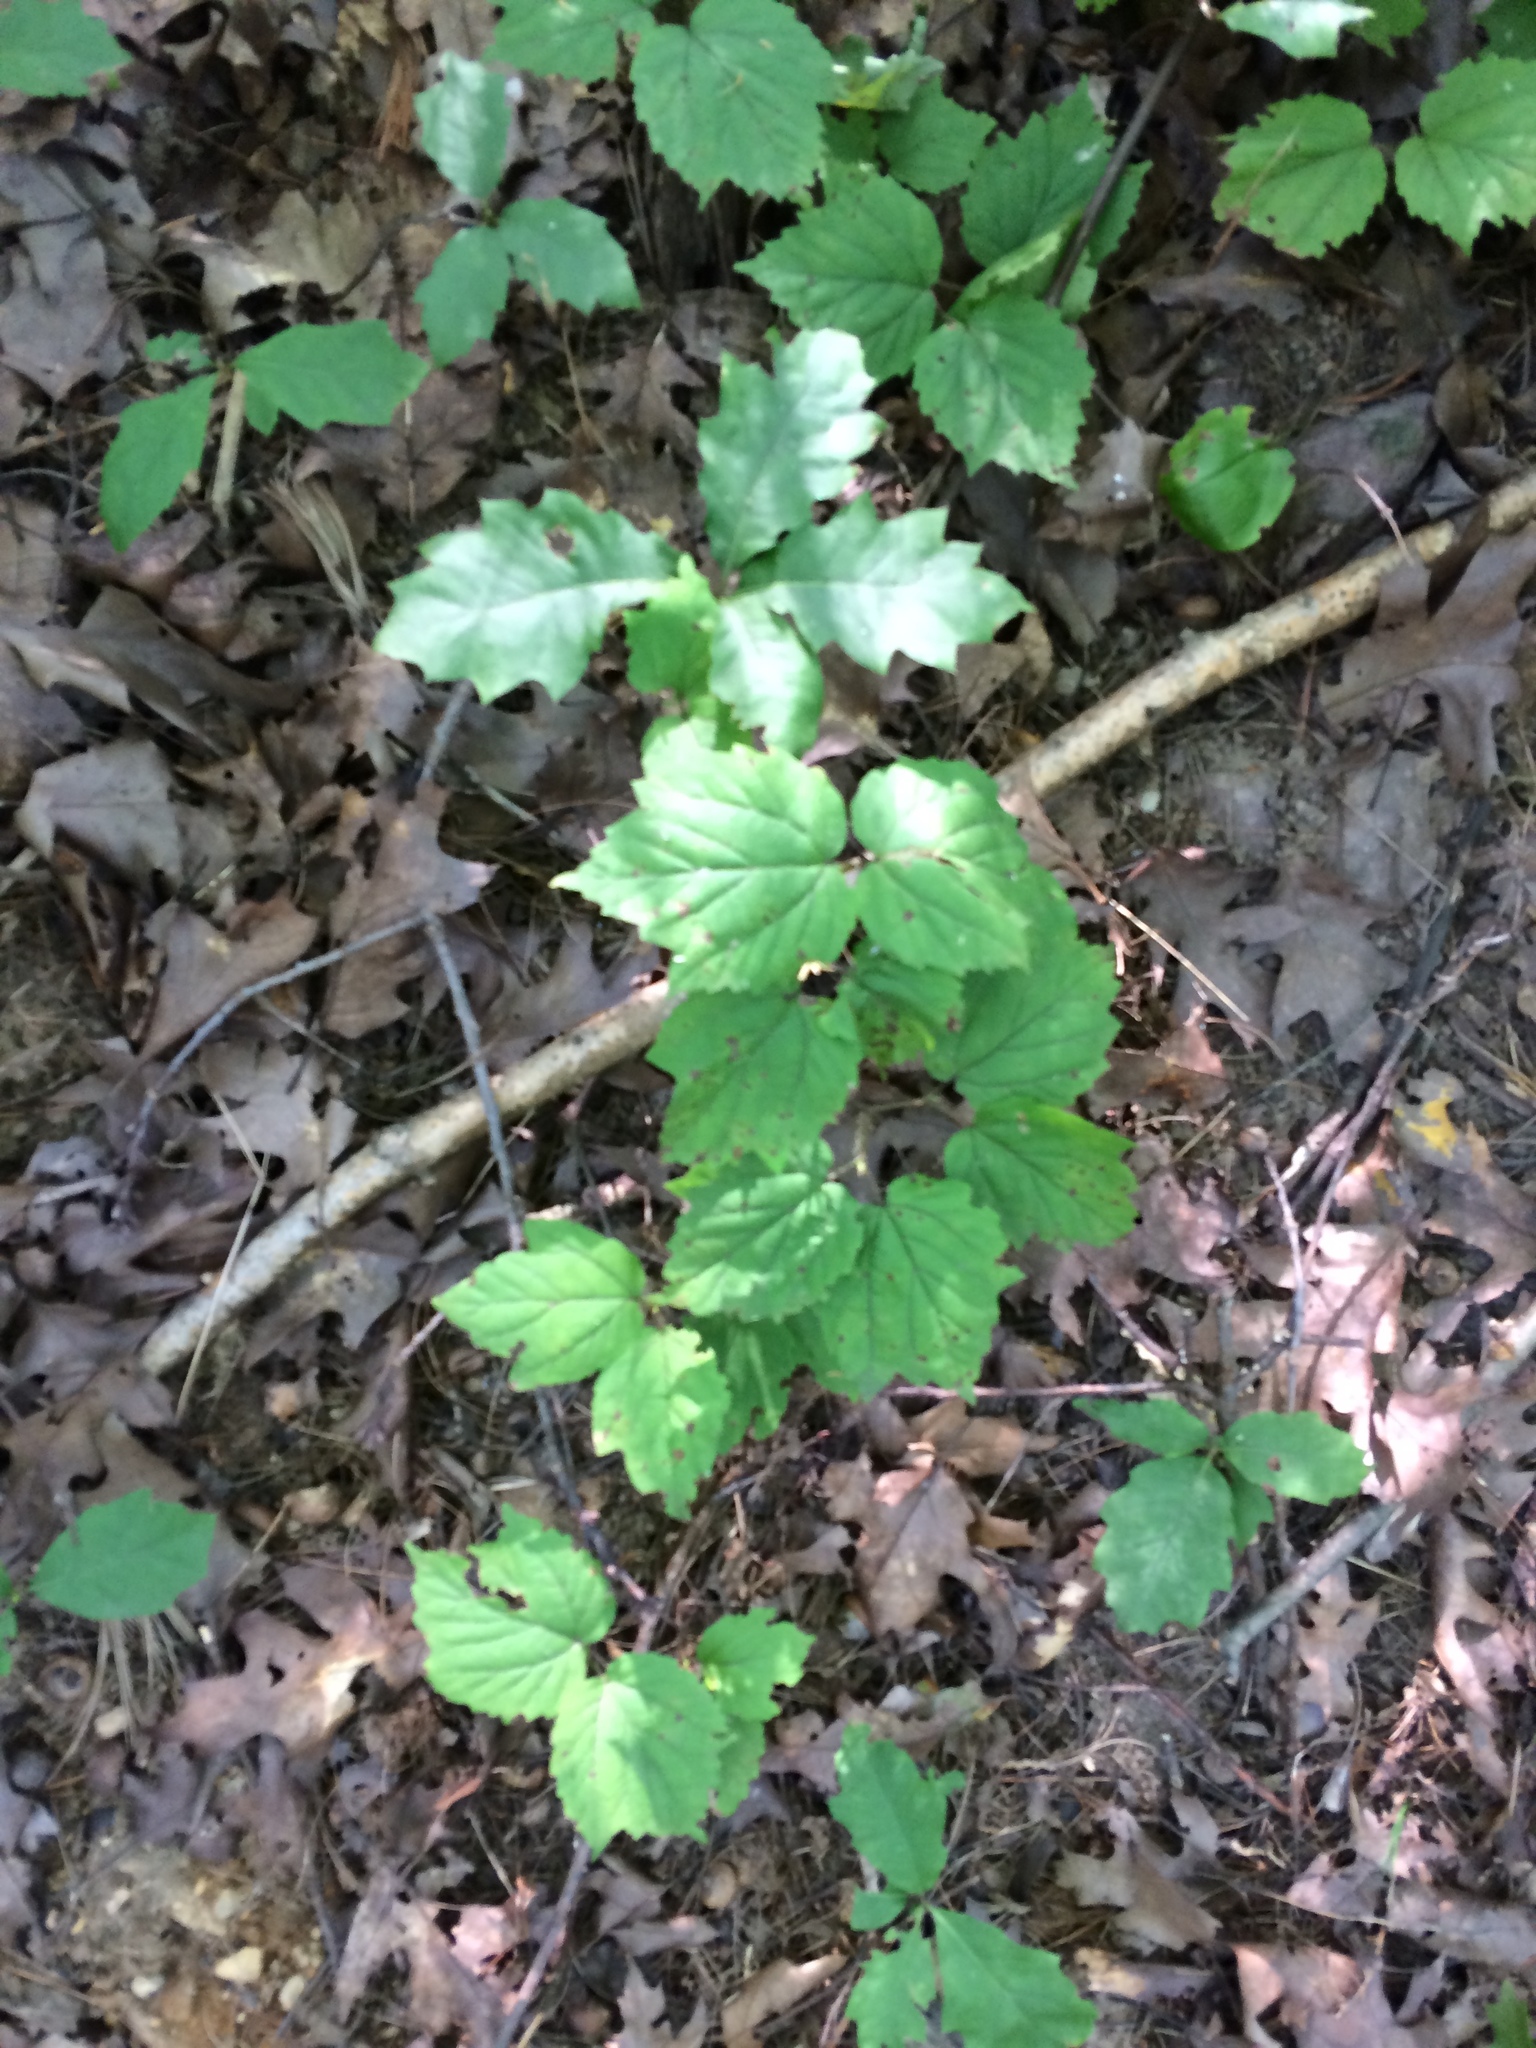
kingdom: Plantae
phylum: Tracheophyta
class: Magnoliopsida
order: Dipsacales
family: Viburnaceae
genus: Viburnum
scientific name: Viburnum acerifolium
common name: Dockmackie
